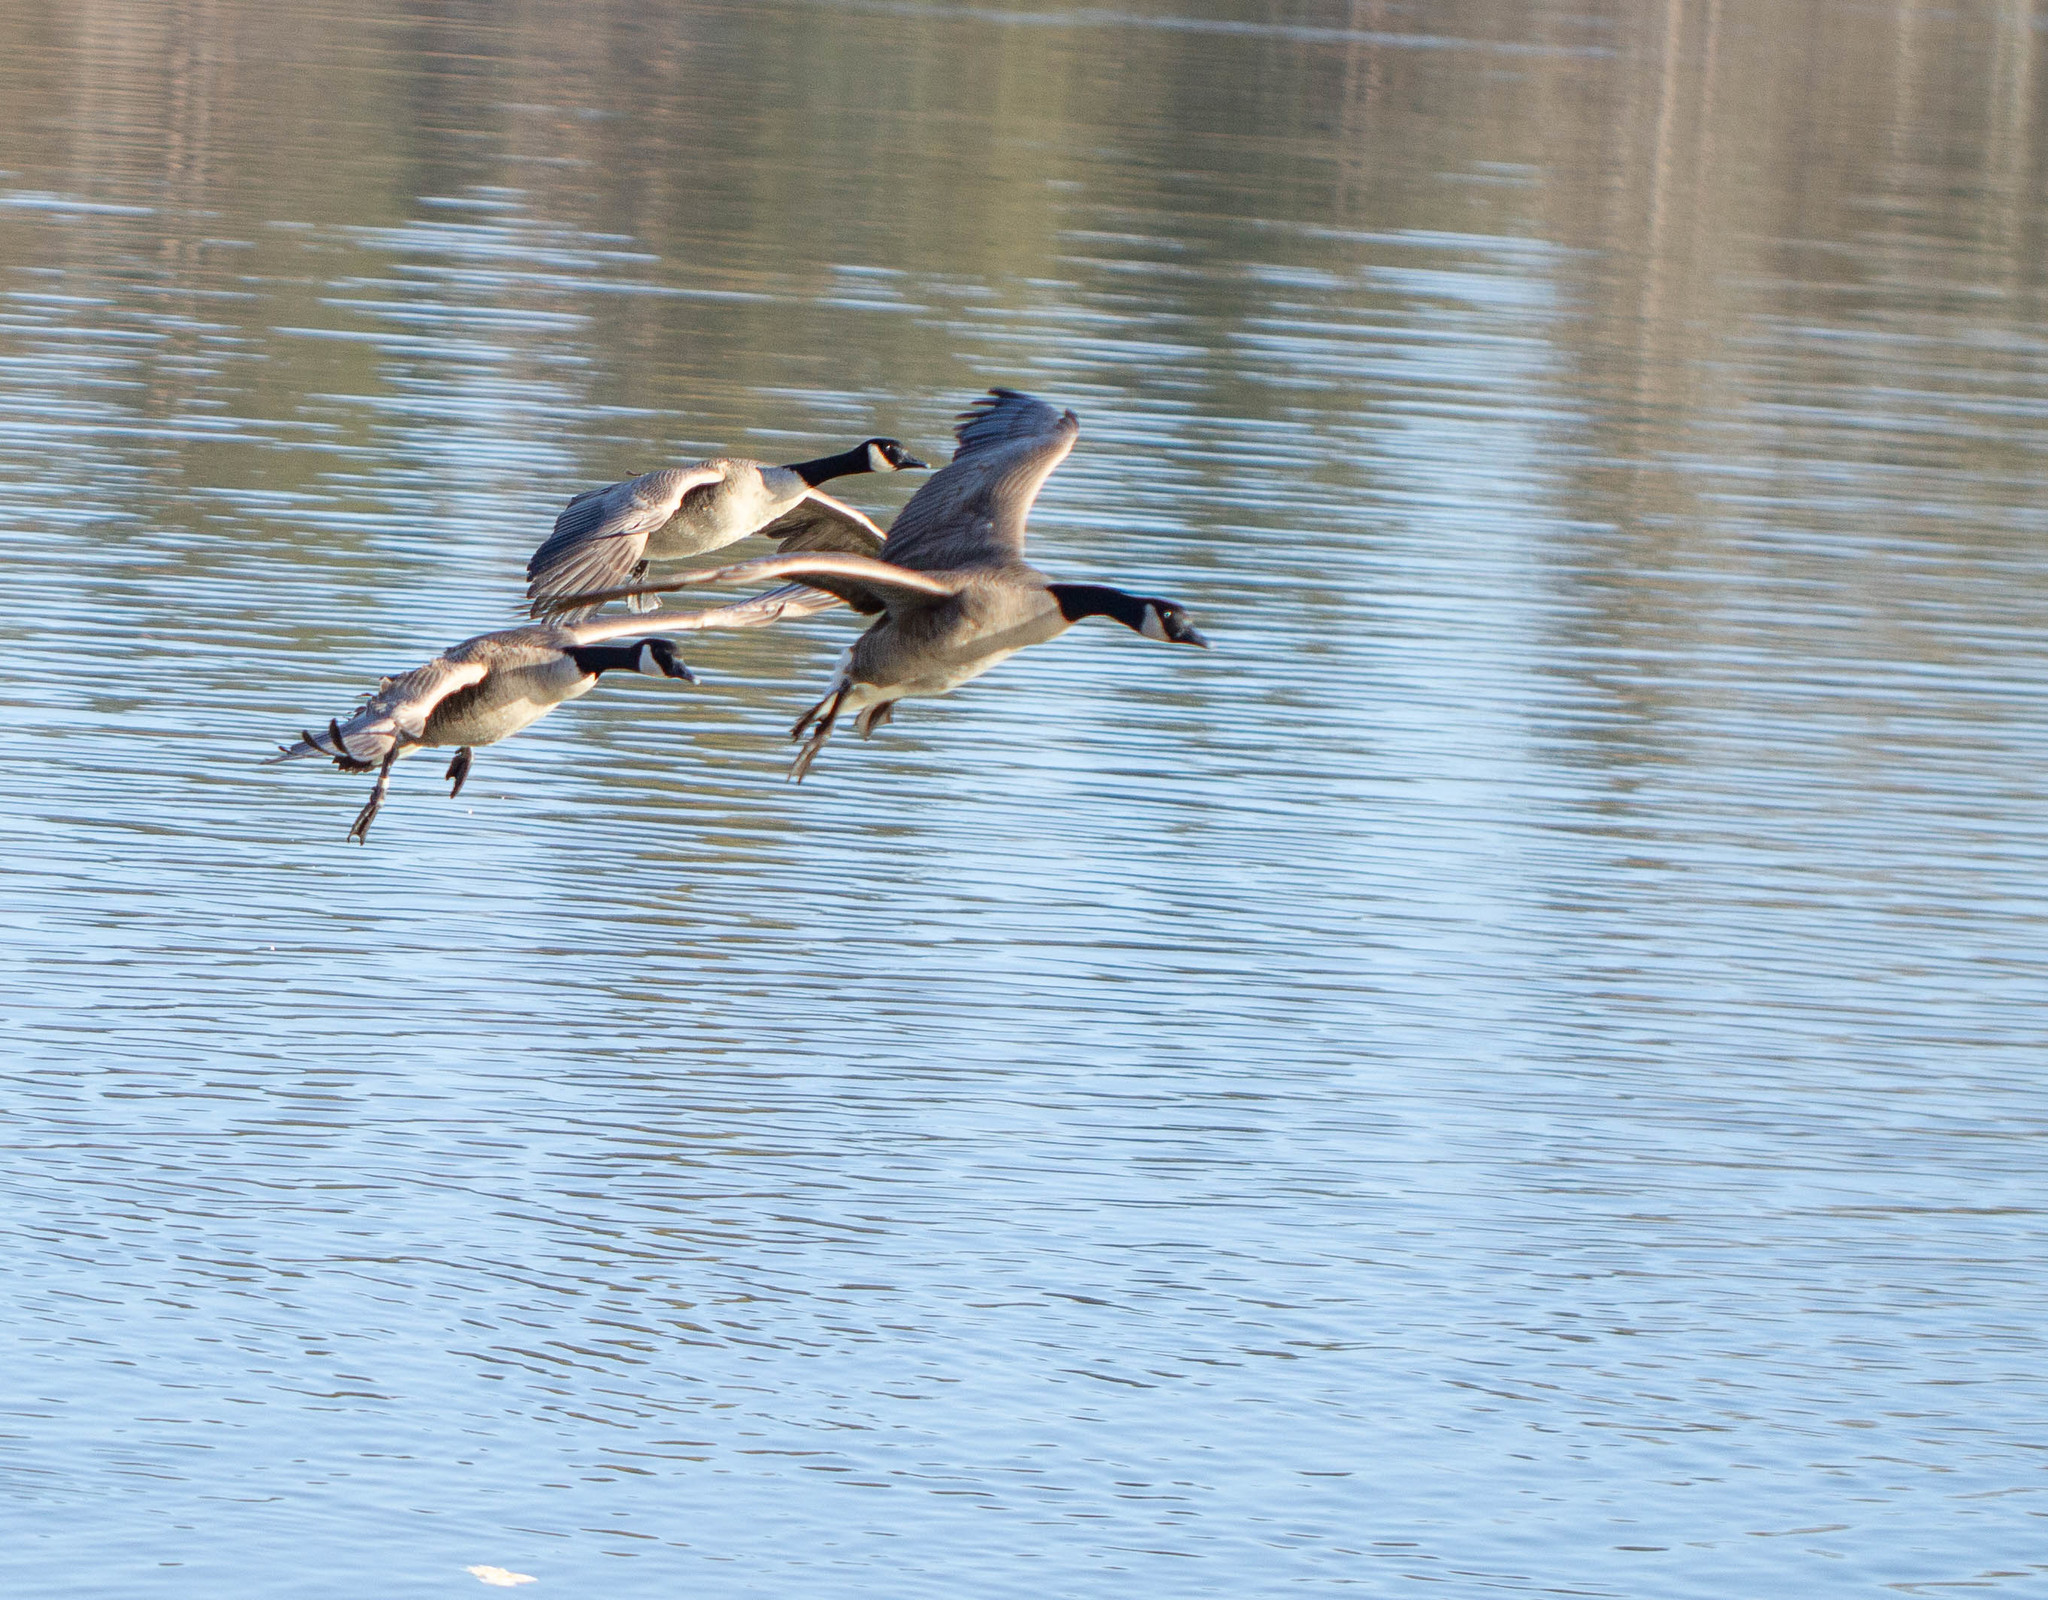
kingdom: Animalia
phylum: Chordata
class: Aves
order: Anseriformes
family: Anatidae
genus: Branta
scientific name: Branta canadensis
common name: Canada goose
